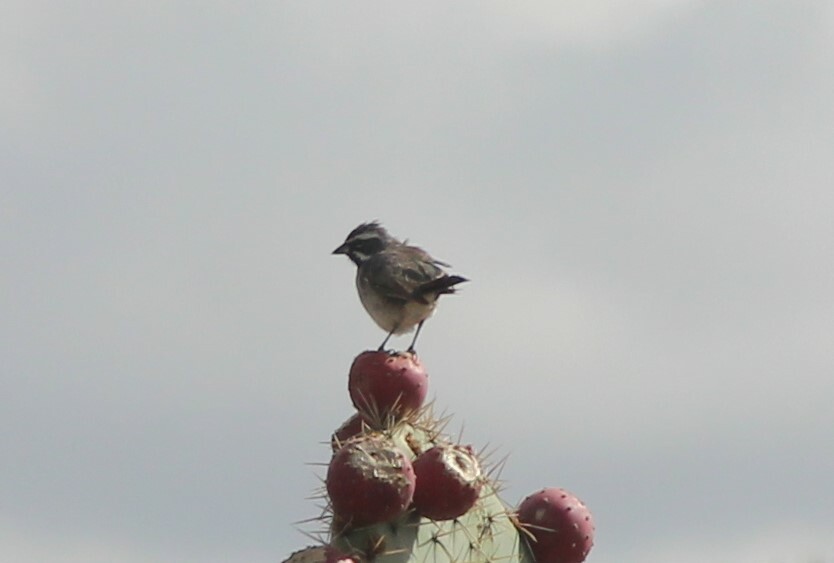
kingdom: Animalia
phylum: Chordata
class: Aves
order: Passeriformes
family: Passerellidae
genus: Amphispiza
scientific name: Amphispiza bilineata
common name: Black-throated sparrow
